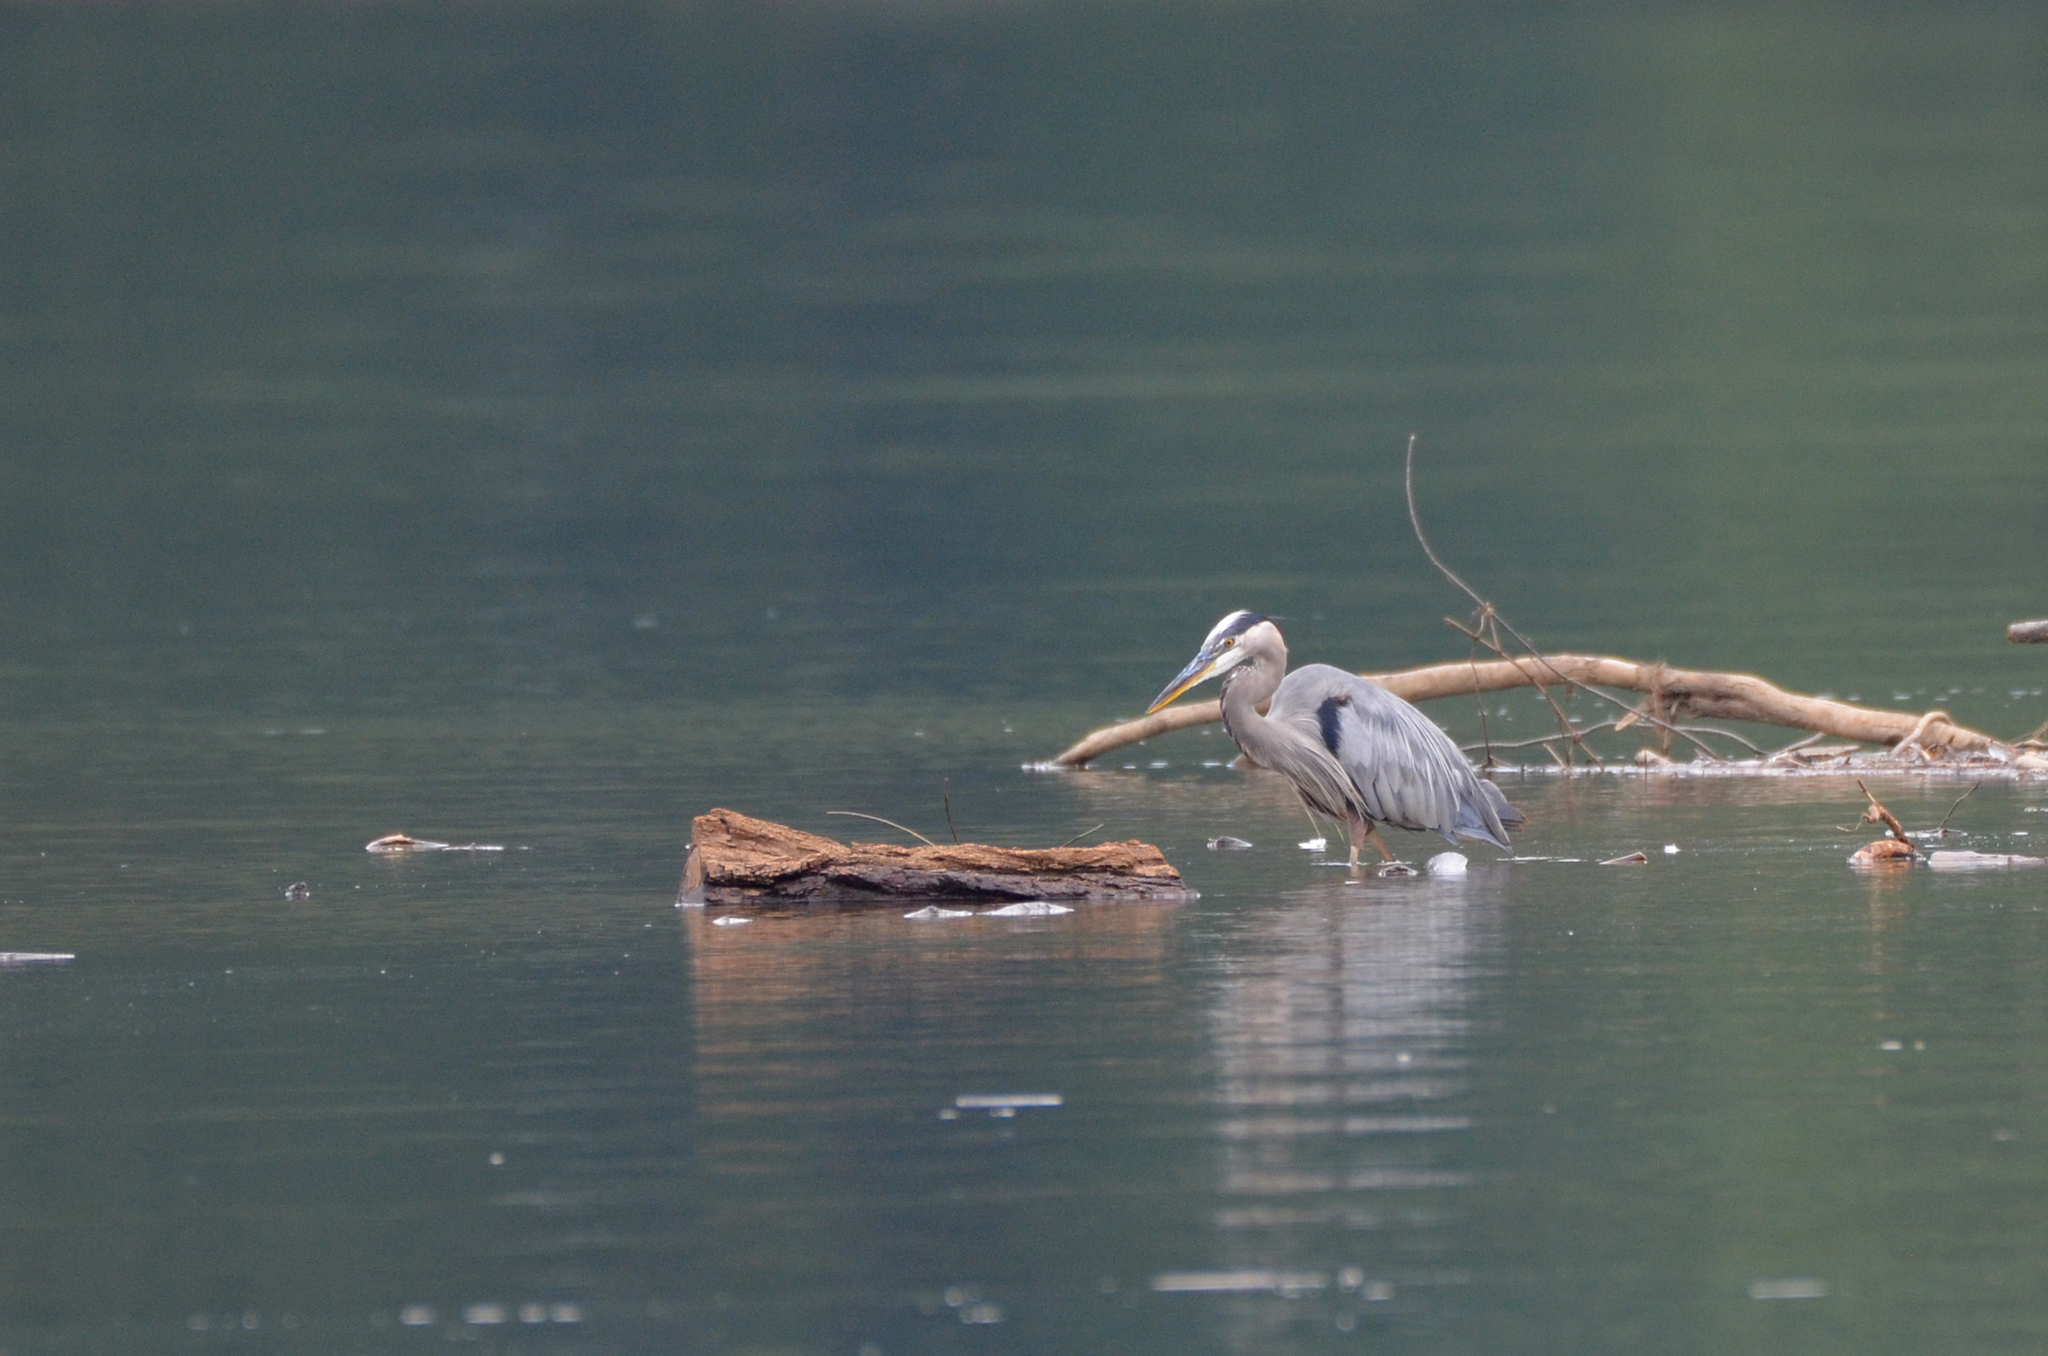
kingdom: Animalia
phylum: Chordata
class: Aves
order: Pelecaniformes
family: Ardeidae
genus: Ardea
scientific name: Ardea herodias
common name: Great blue heron
